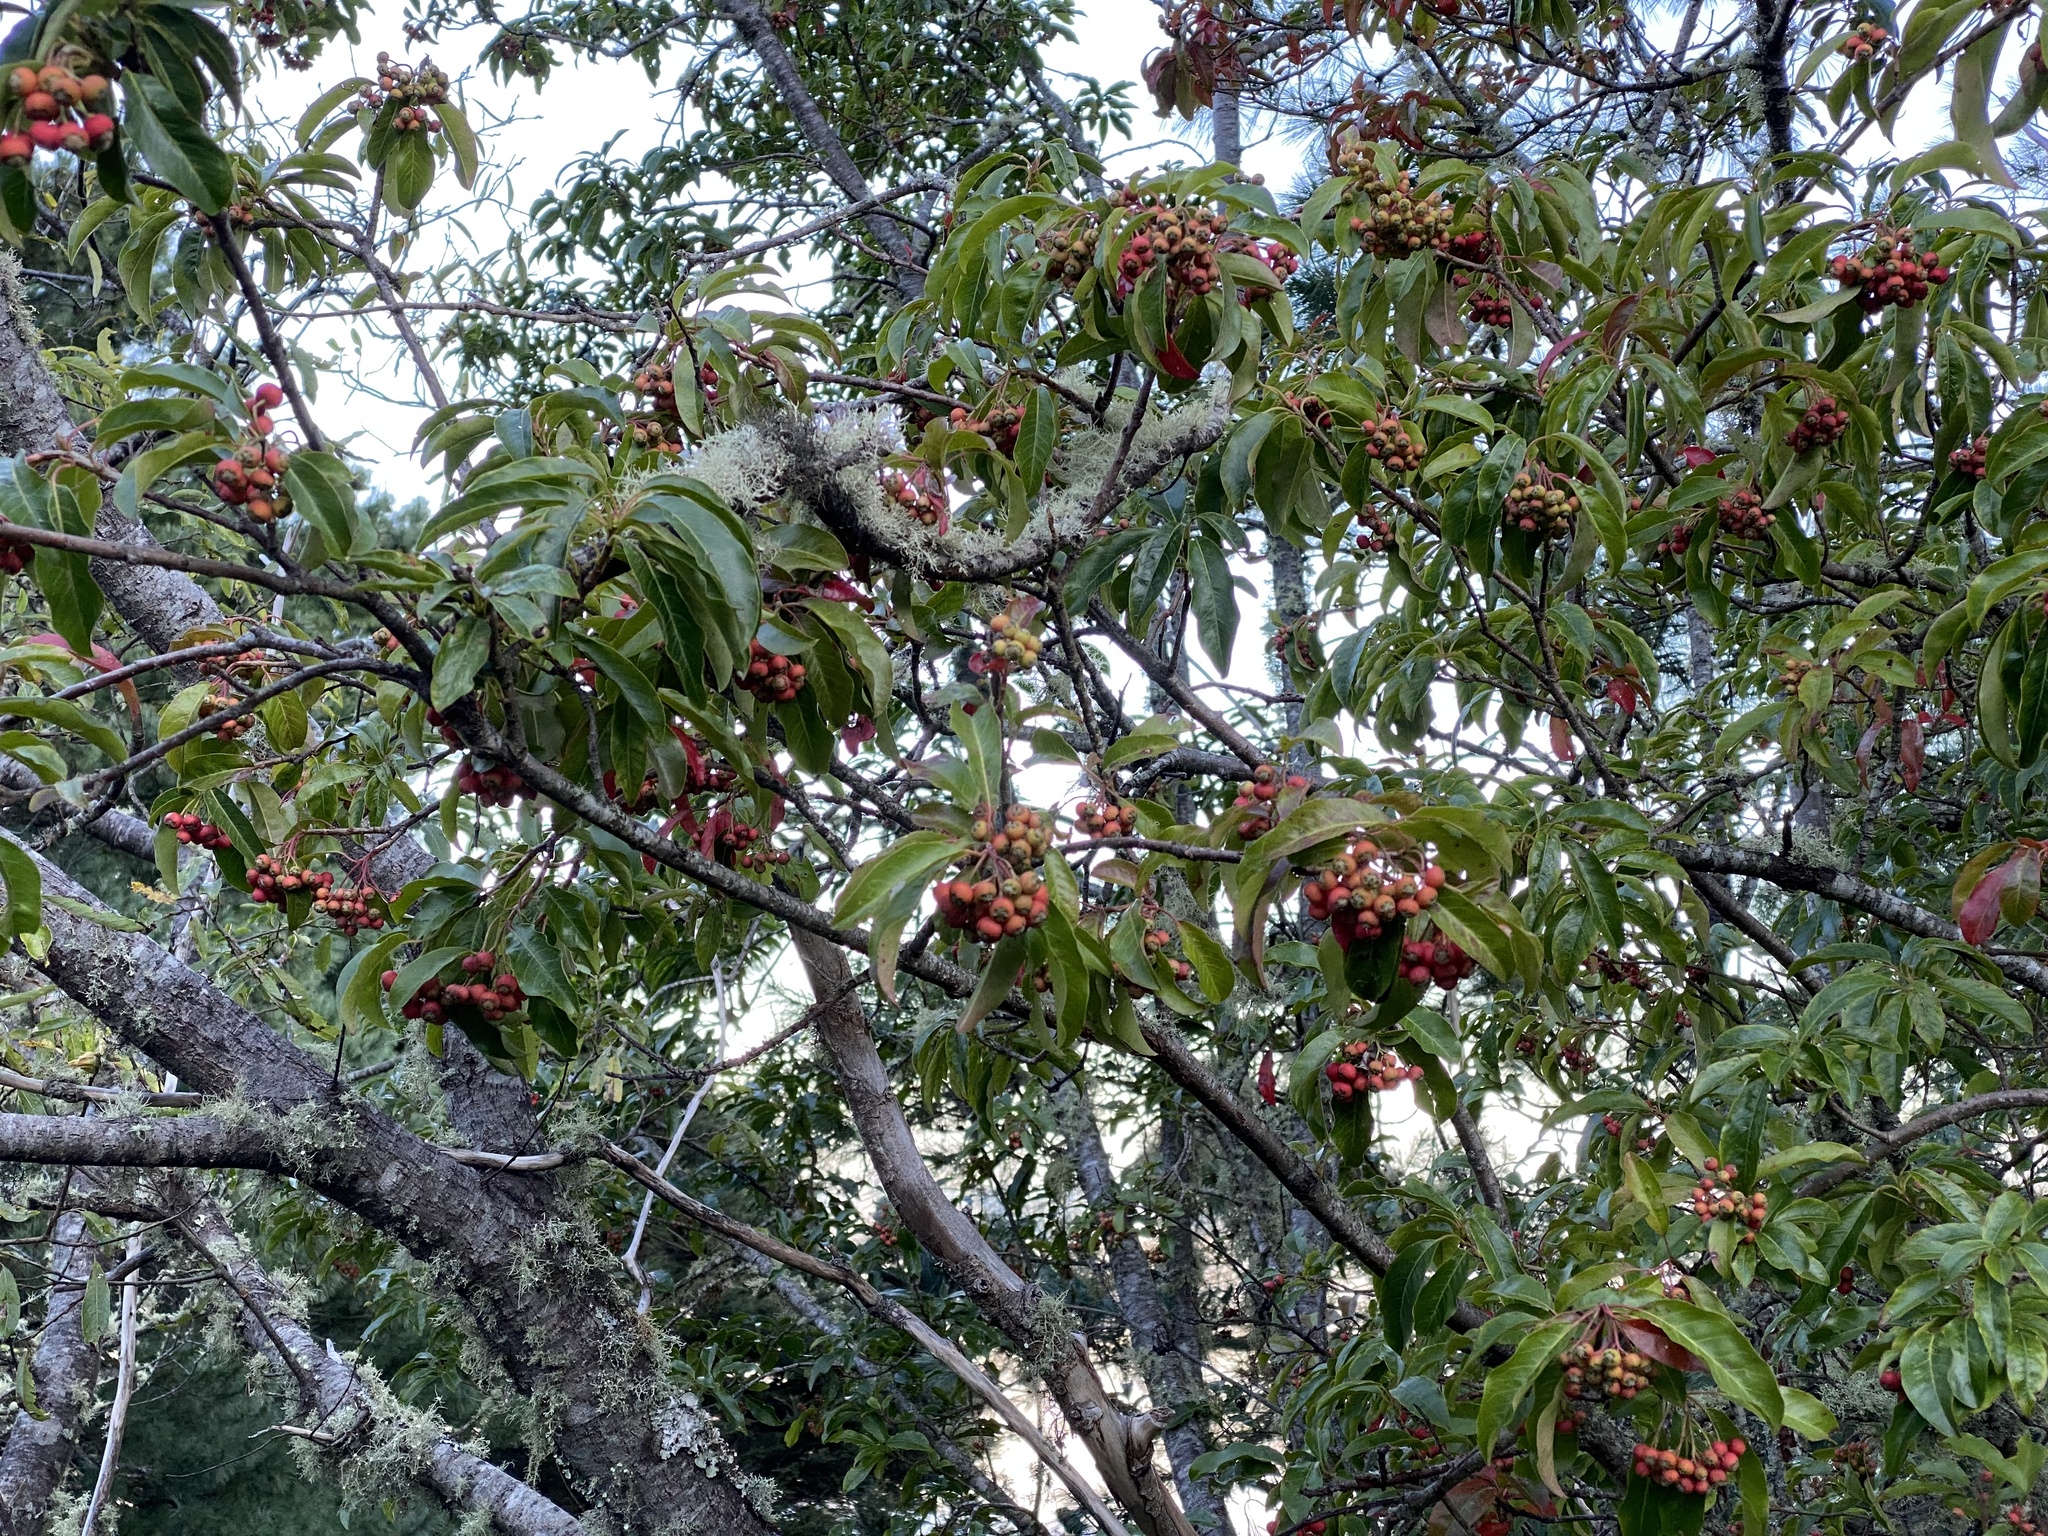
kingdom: Plantae
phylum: Tracheophyta
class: Magnoliopsida
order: Rosales
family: Rosaceae
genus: Stranvaesia
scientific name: Stranvaesia davidiana
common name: Chinese photinia
